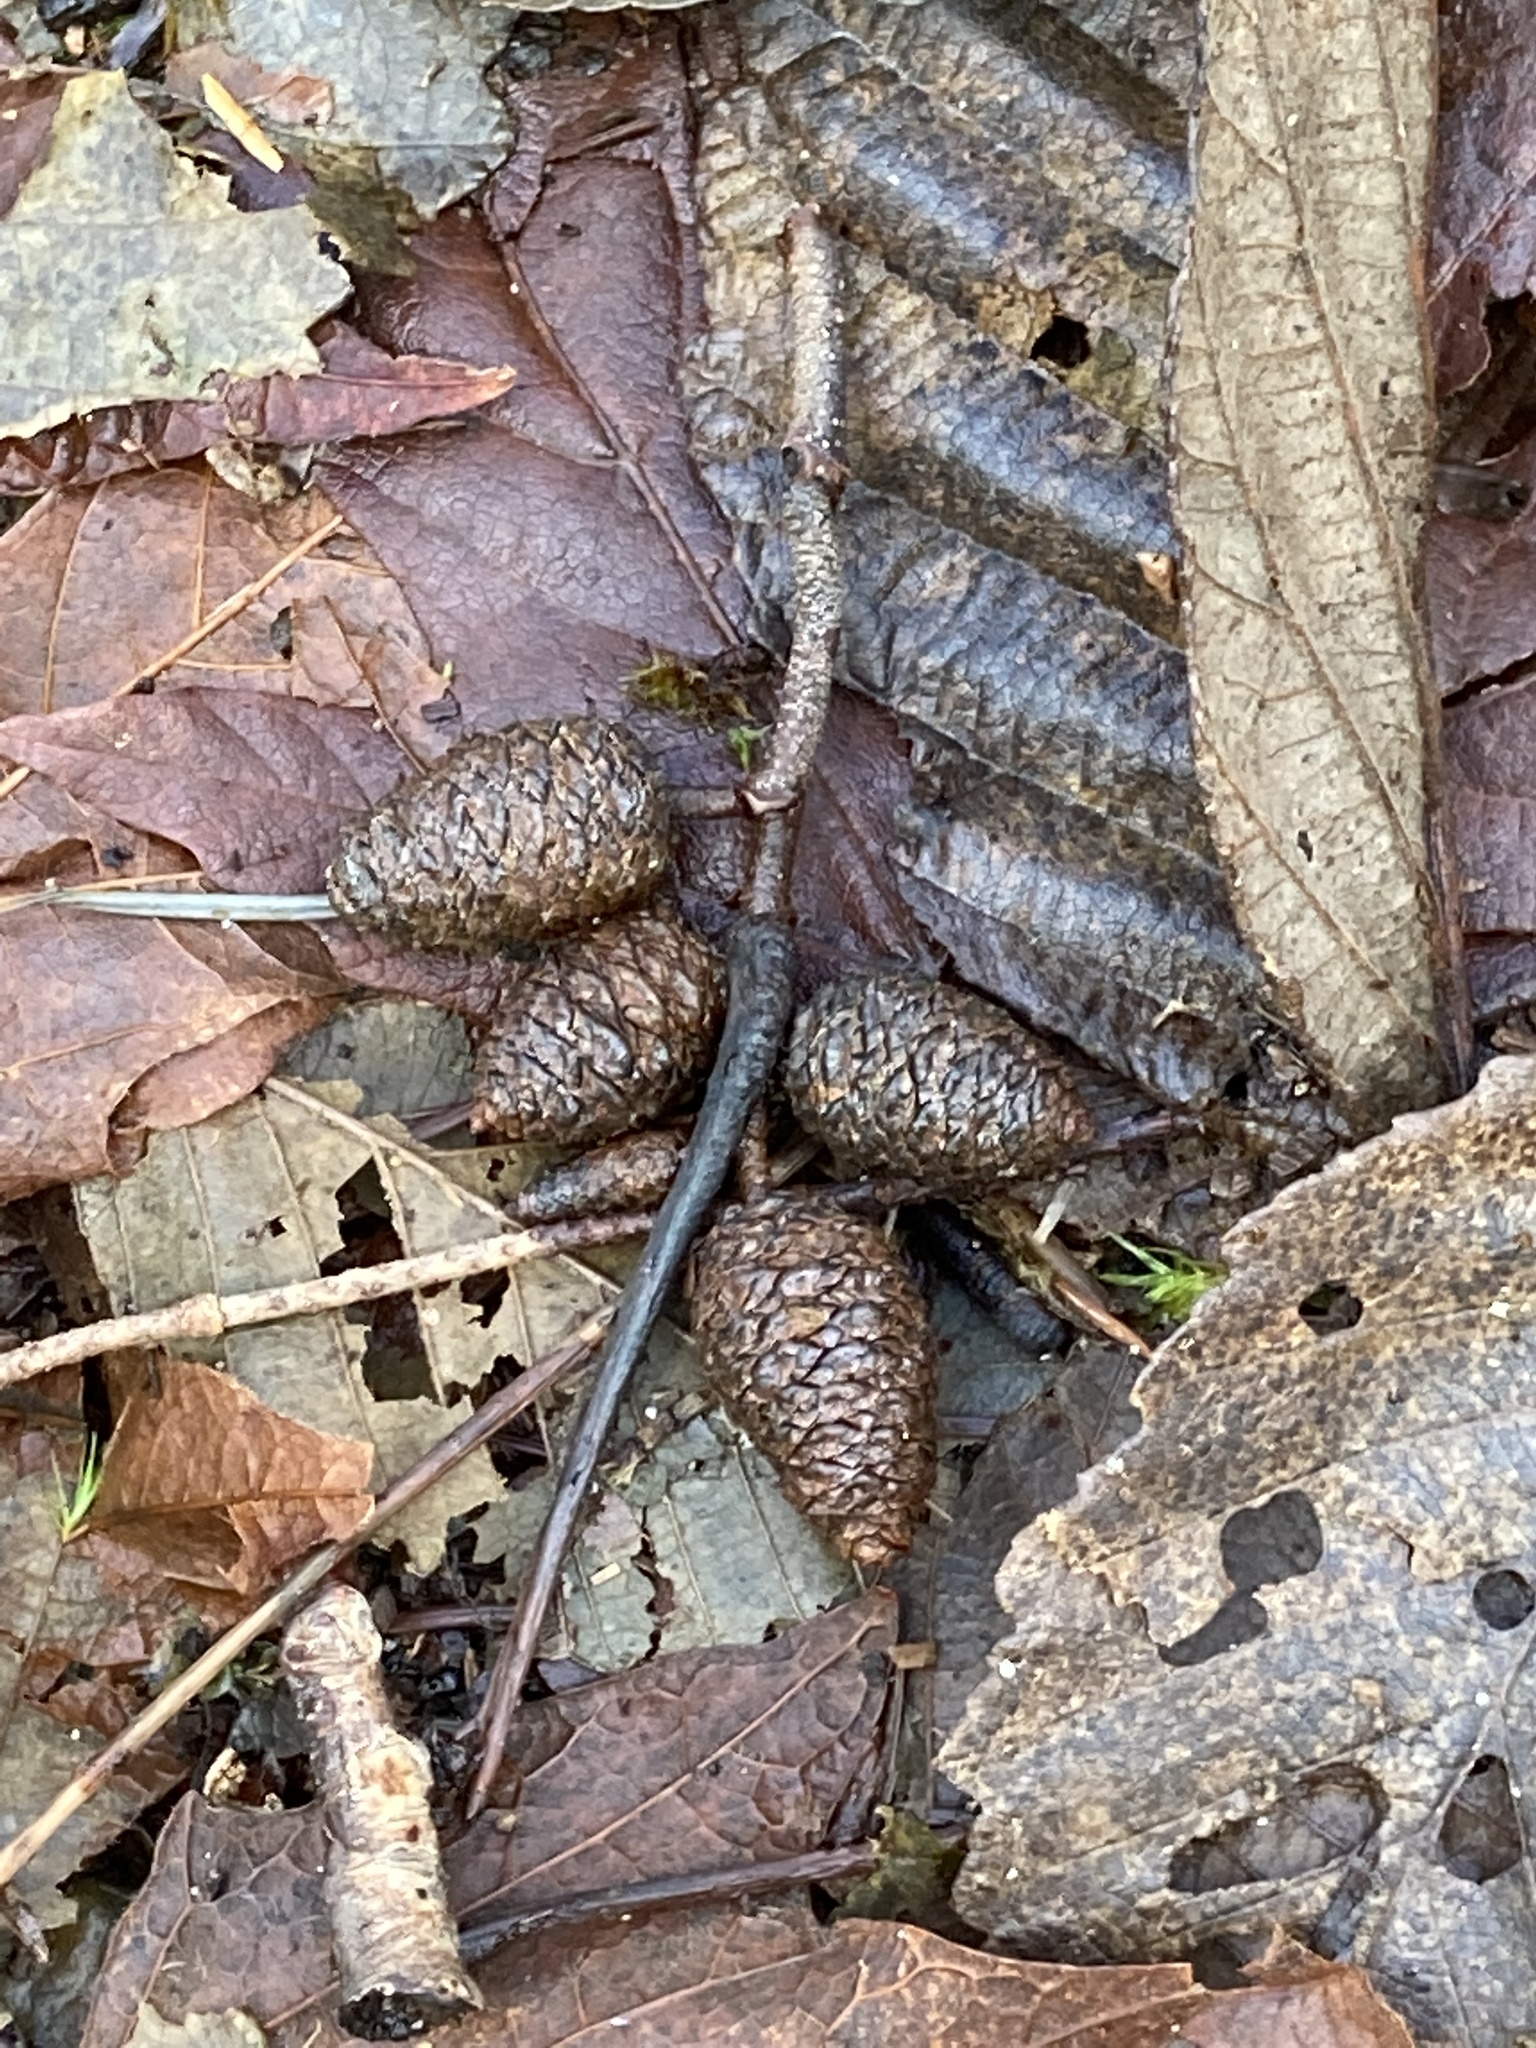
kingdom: Plantae
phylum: Tracheophyta
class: Magnoliopsida
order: Fagales
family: Betulaceae
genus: Alnus
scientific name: Alnus rubra
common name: Red alder
